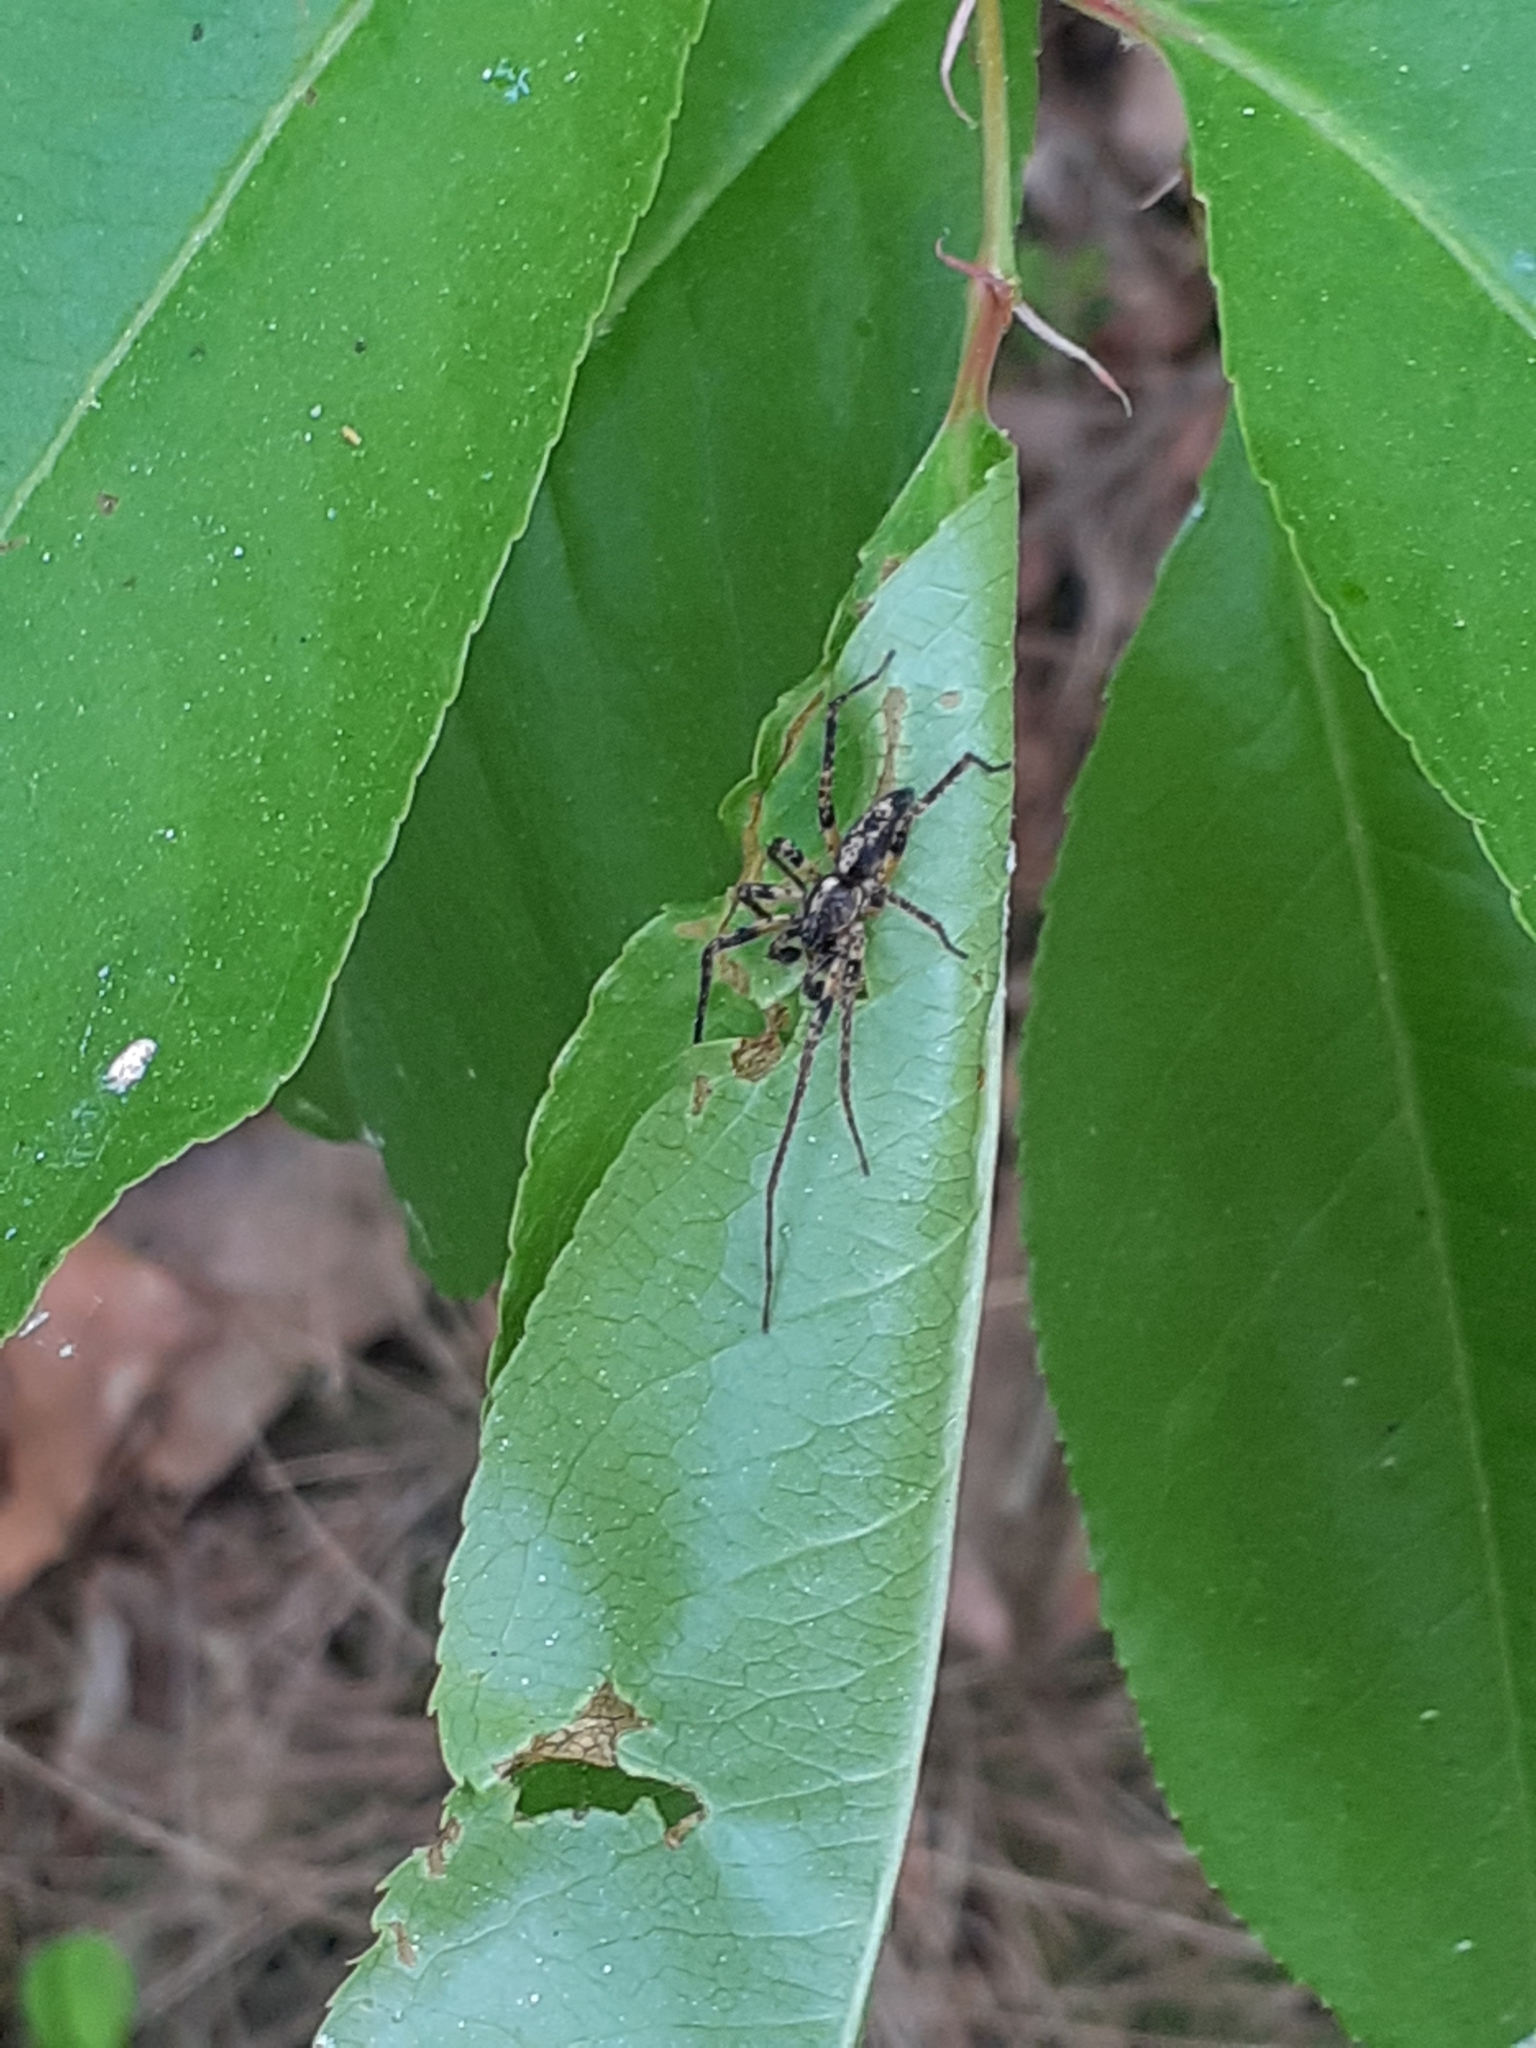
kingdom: Animalia
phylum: Arthropoda
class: Arachnida
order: Araneae
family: Anyphaenidae
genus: Anyphaena
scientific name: Anyphaena accentuata
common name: Buzzing spider
